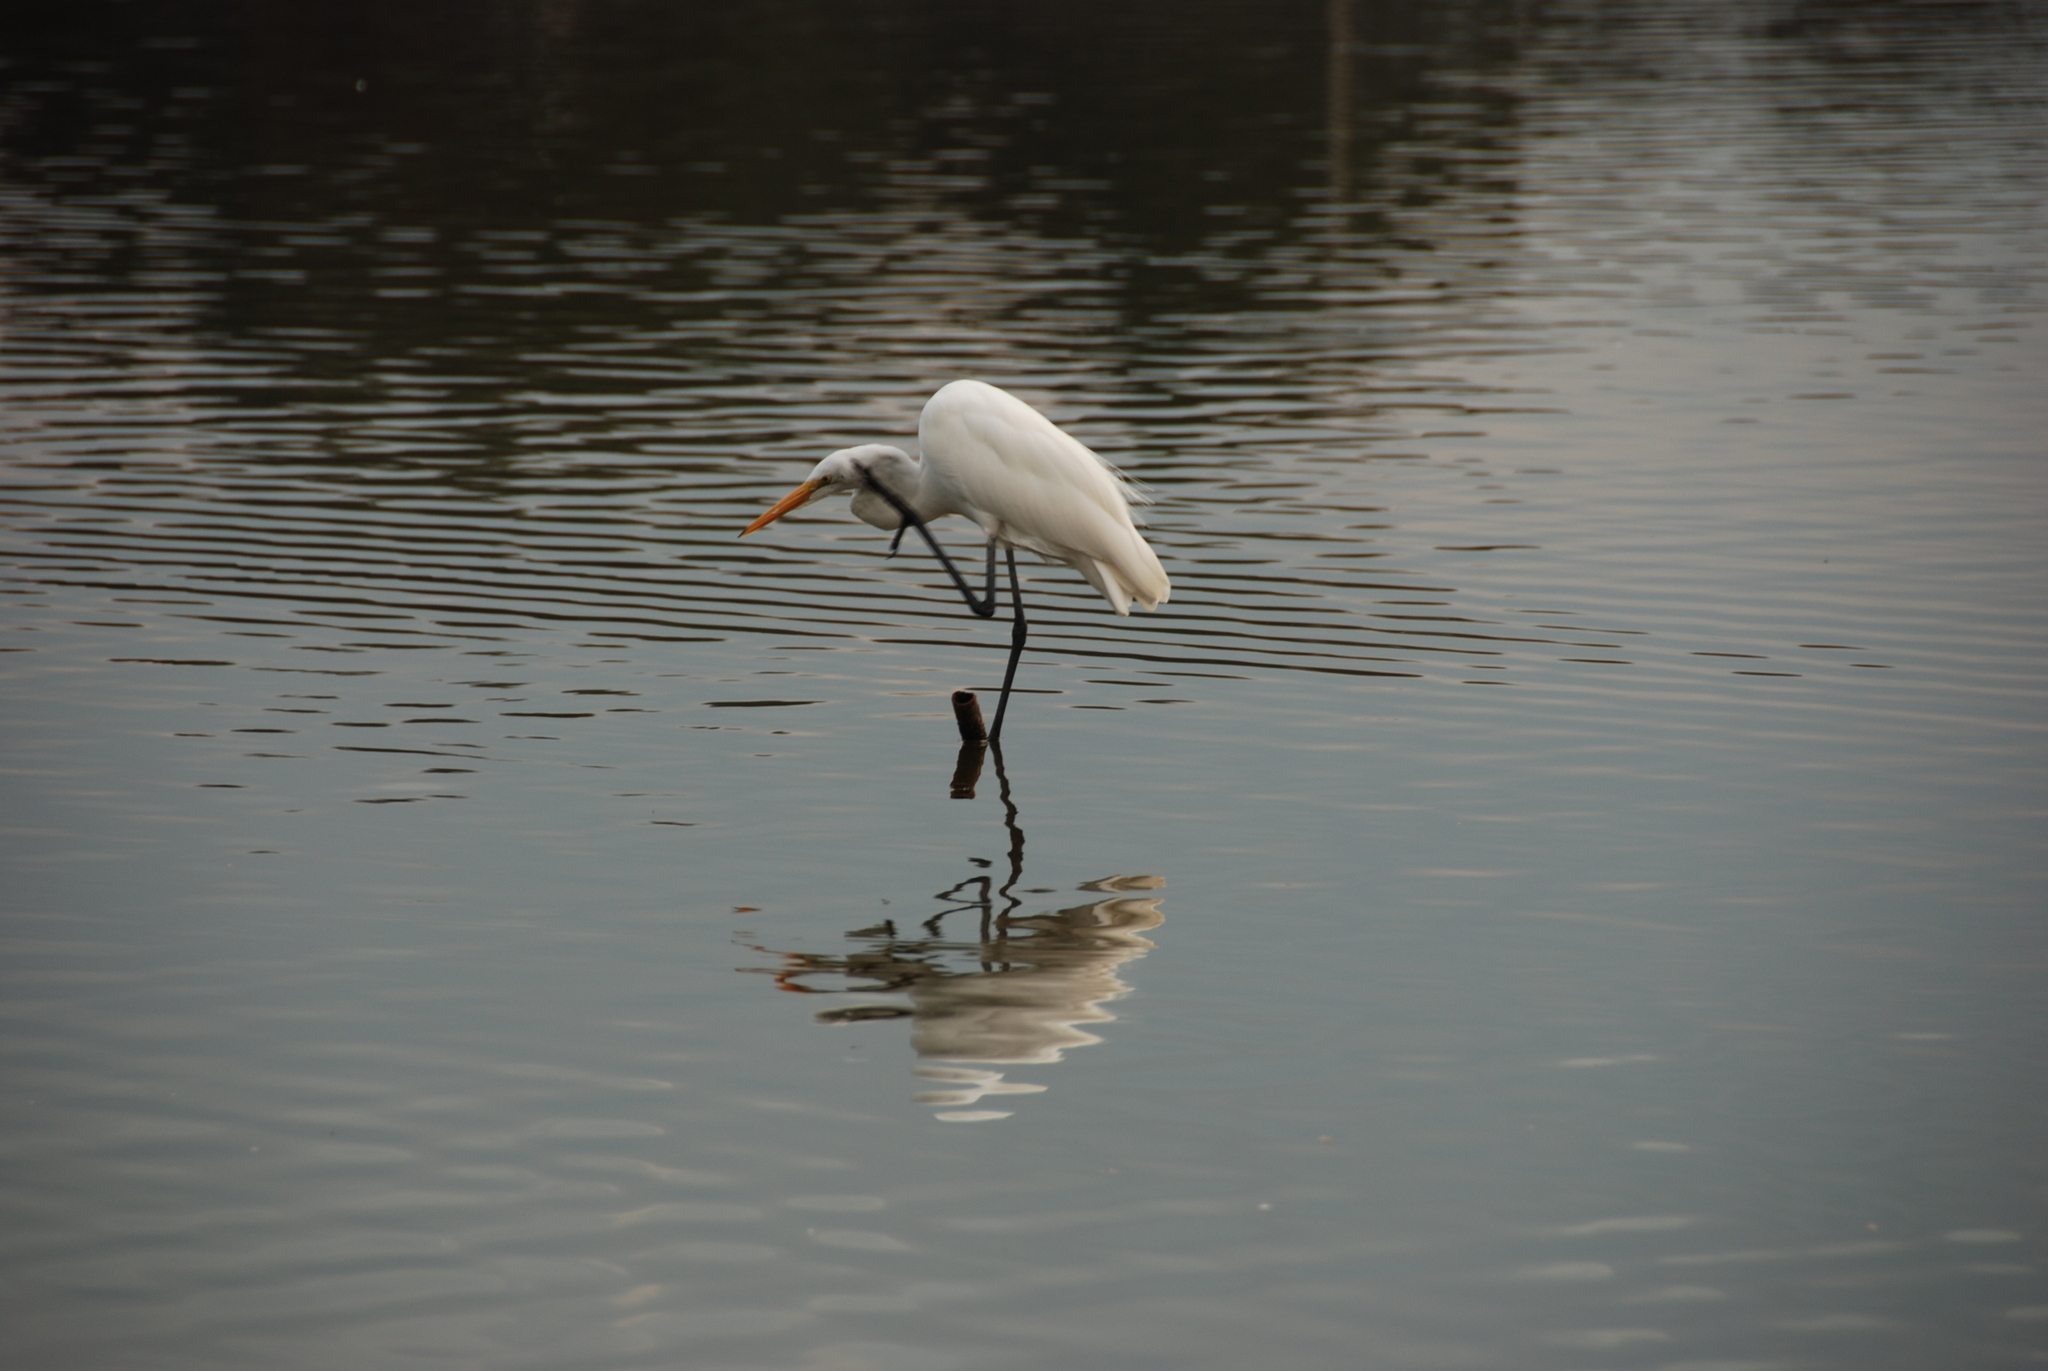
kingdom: Animalia
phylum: Chordata
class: Aves
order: Pelecaniformes
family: Ardeidae
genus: Ardea
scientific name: Ardea alba
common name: Great egret
